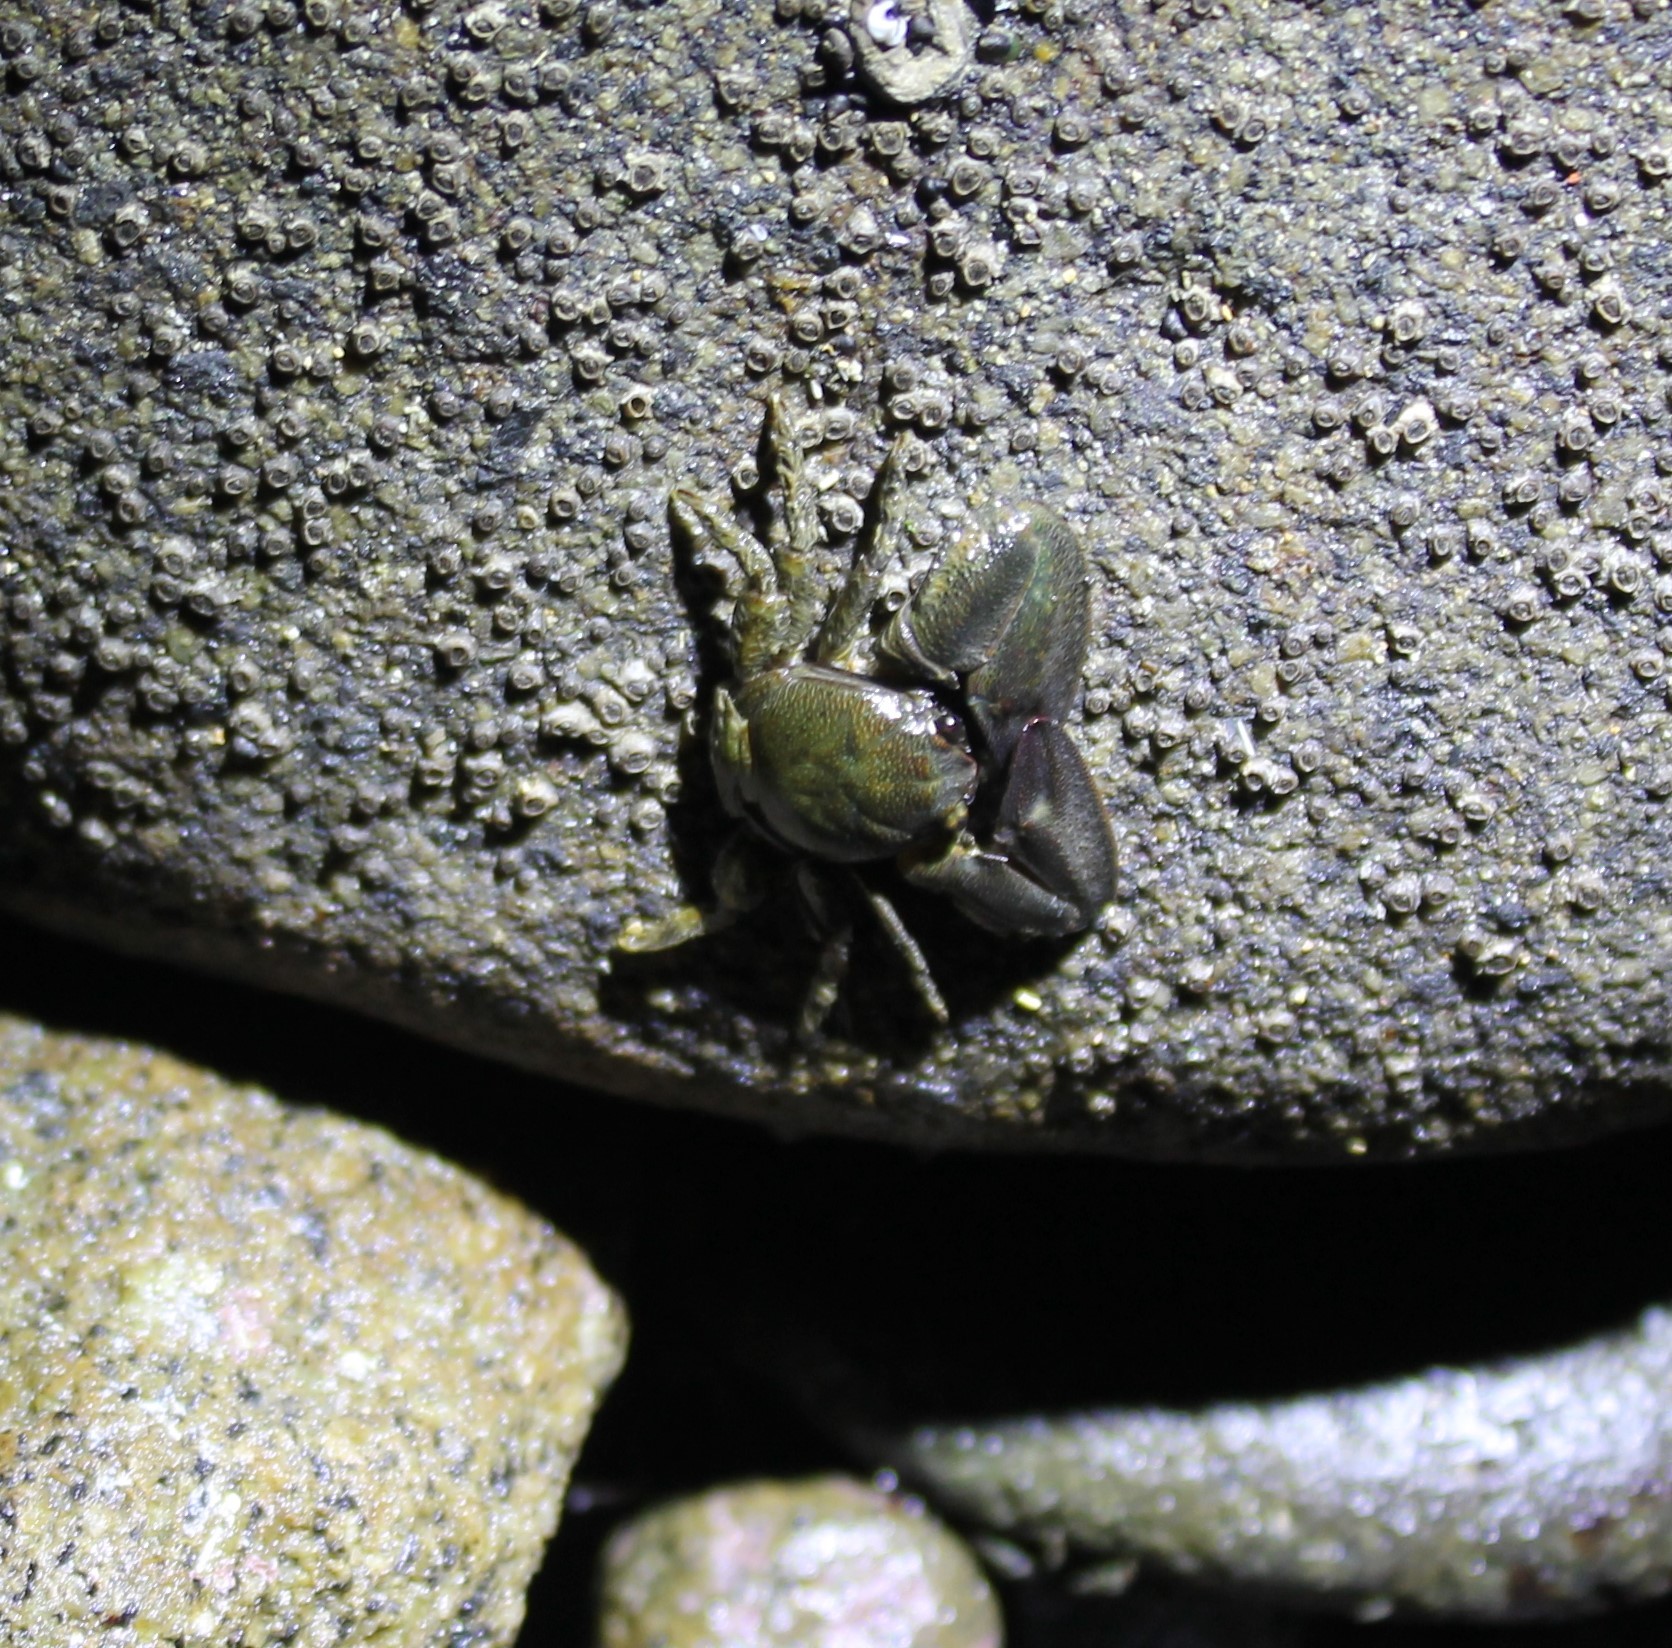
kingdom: Animalia
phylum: Arthropoda
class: Malacostraca
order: Decapoda
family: Porcellanidae
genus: Petrolisthes
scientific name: Petrolisthes elongatus
